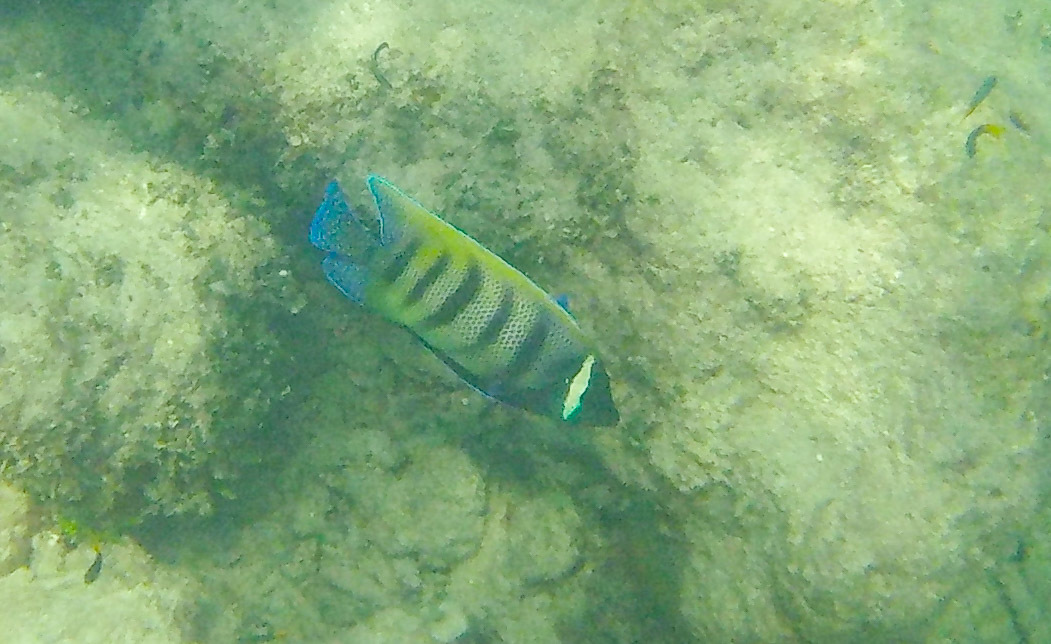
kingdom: Animalia
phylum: Chordata
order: Perciformes
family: Pomacanthidae
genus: Pomacanthus
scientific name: Pomacanthus sexstriatus
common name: Six-banded angelfish
